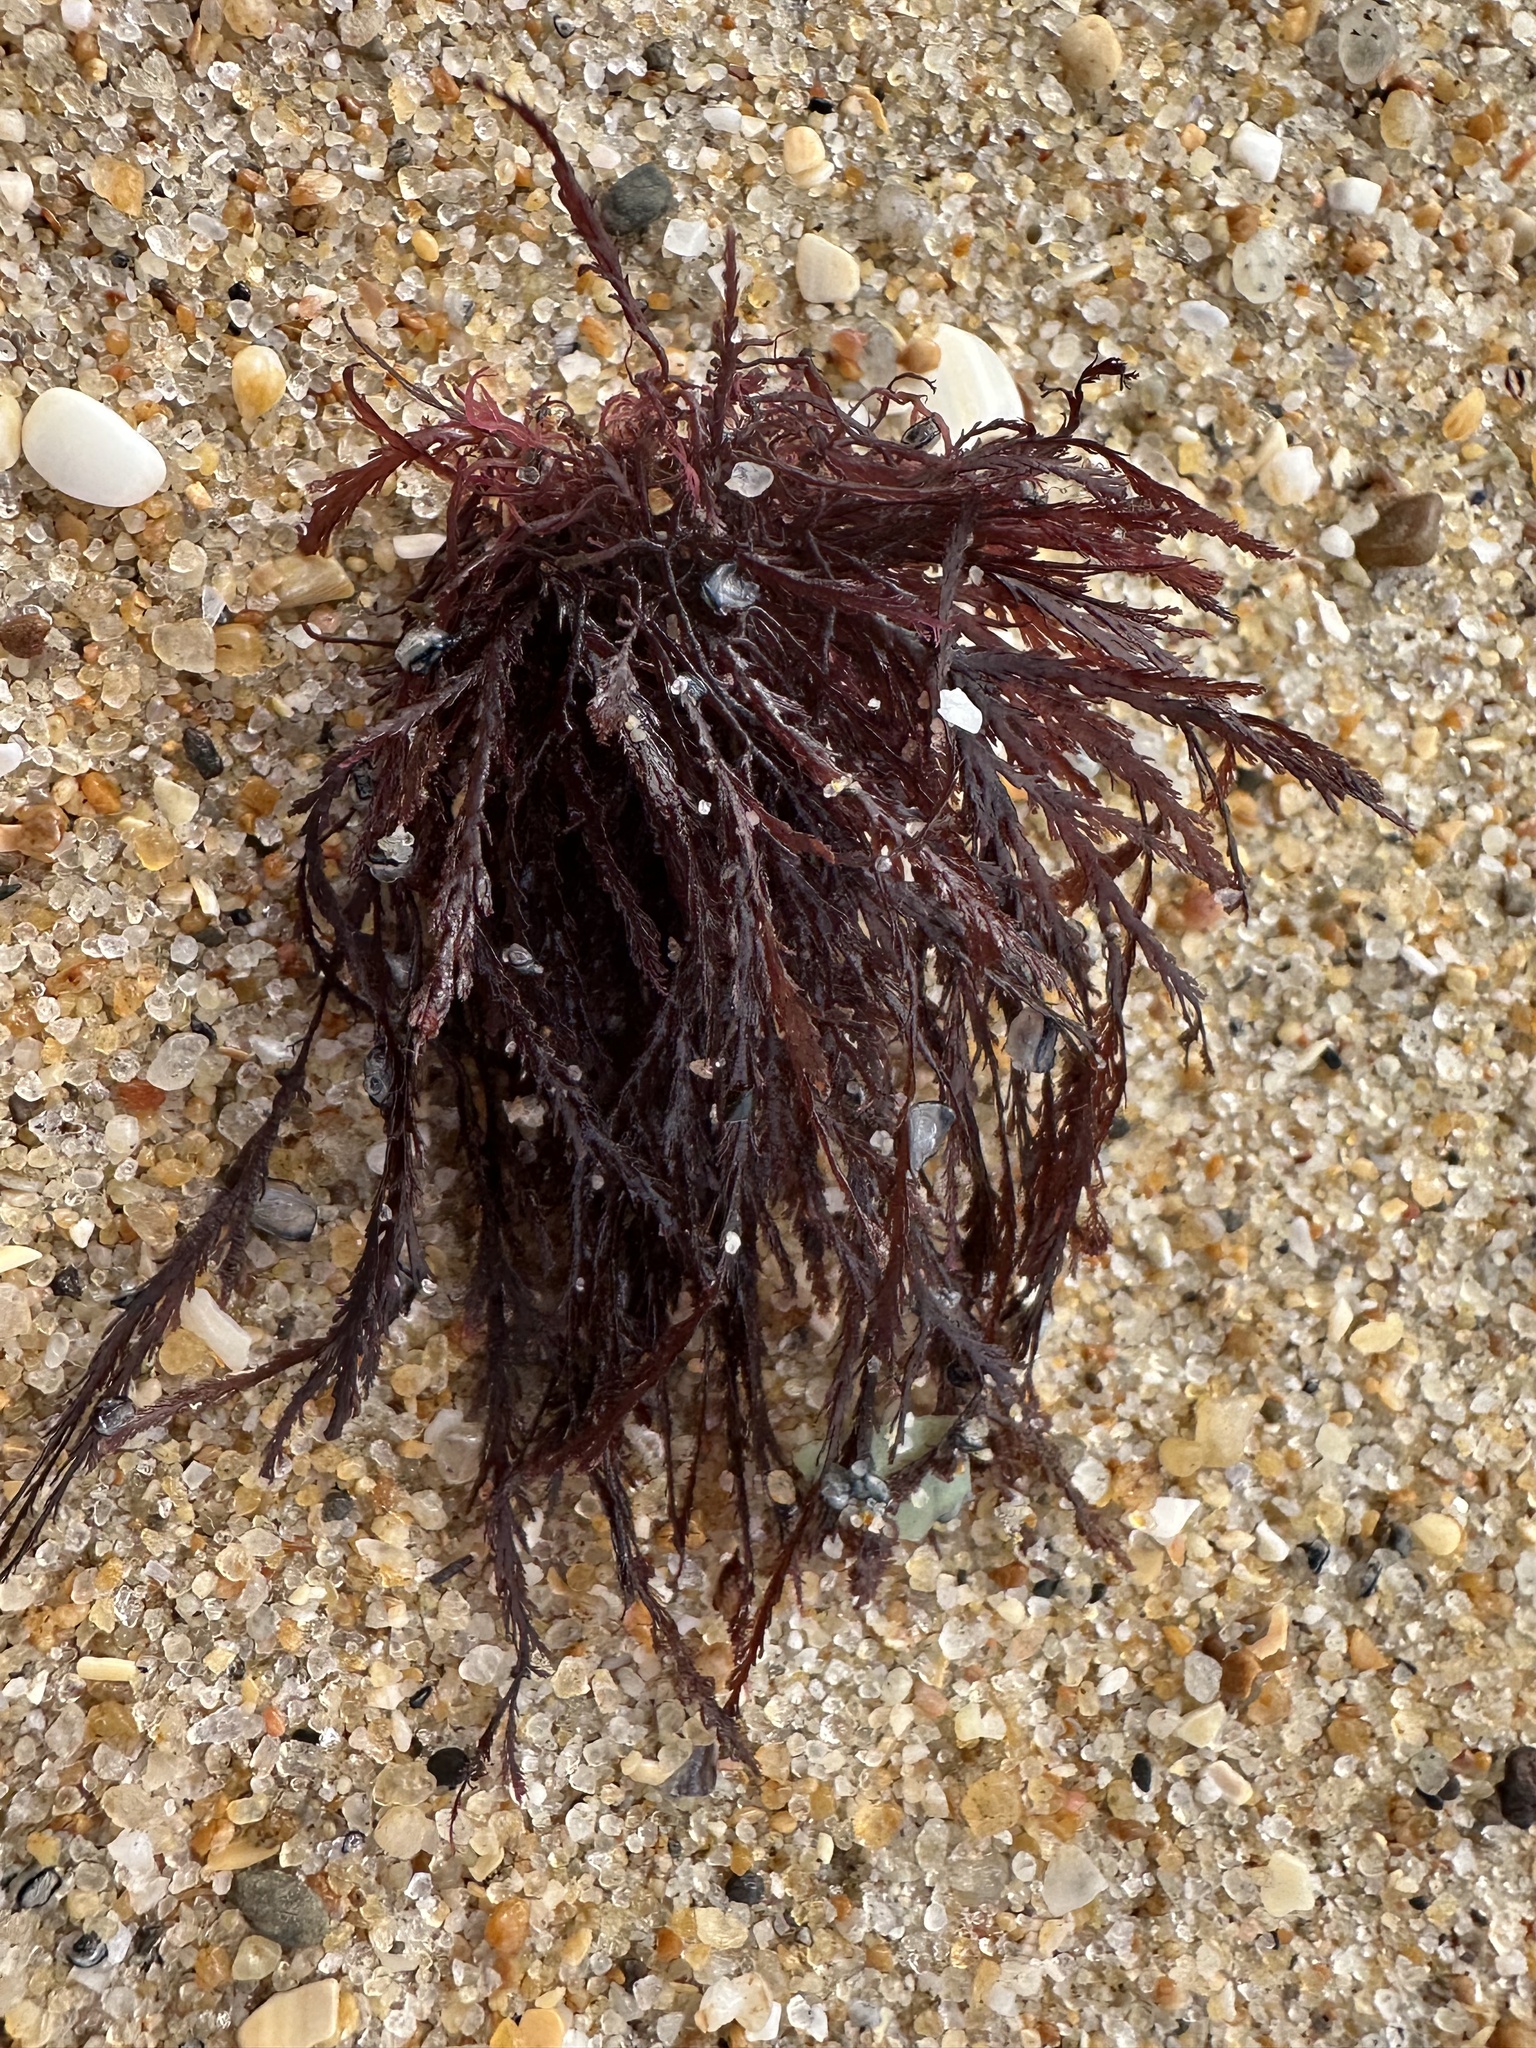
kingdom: Plantae
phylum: Rhodophyta
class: Florideophyceae
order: Ceramiales
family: Rhodomelaceae
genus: Pterosiphonia
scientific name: Pterosiphonia complanata
